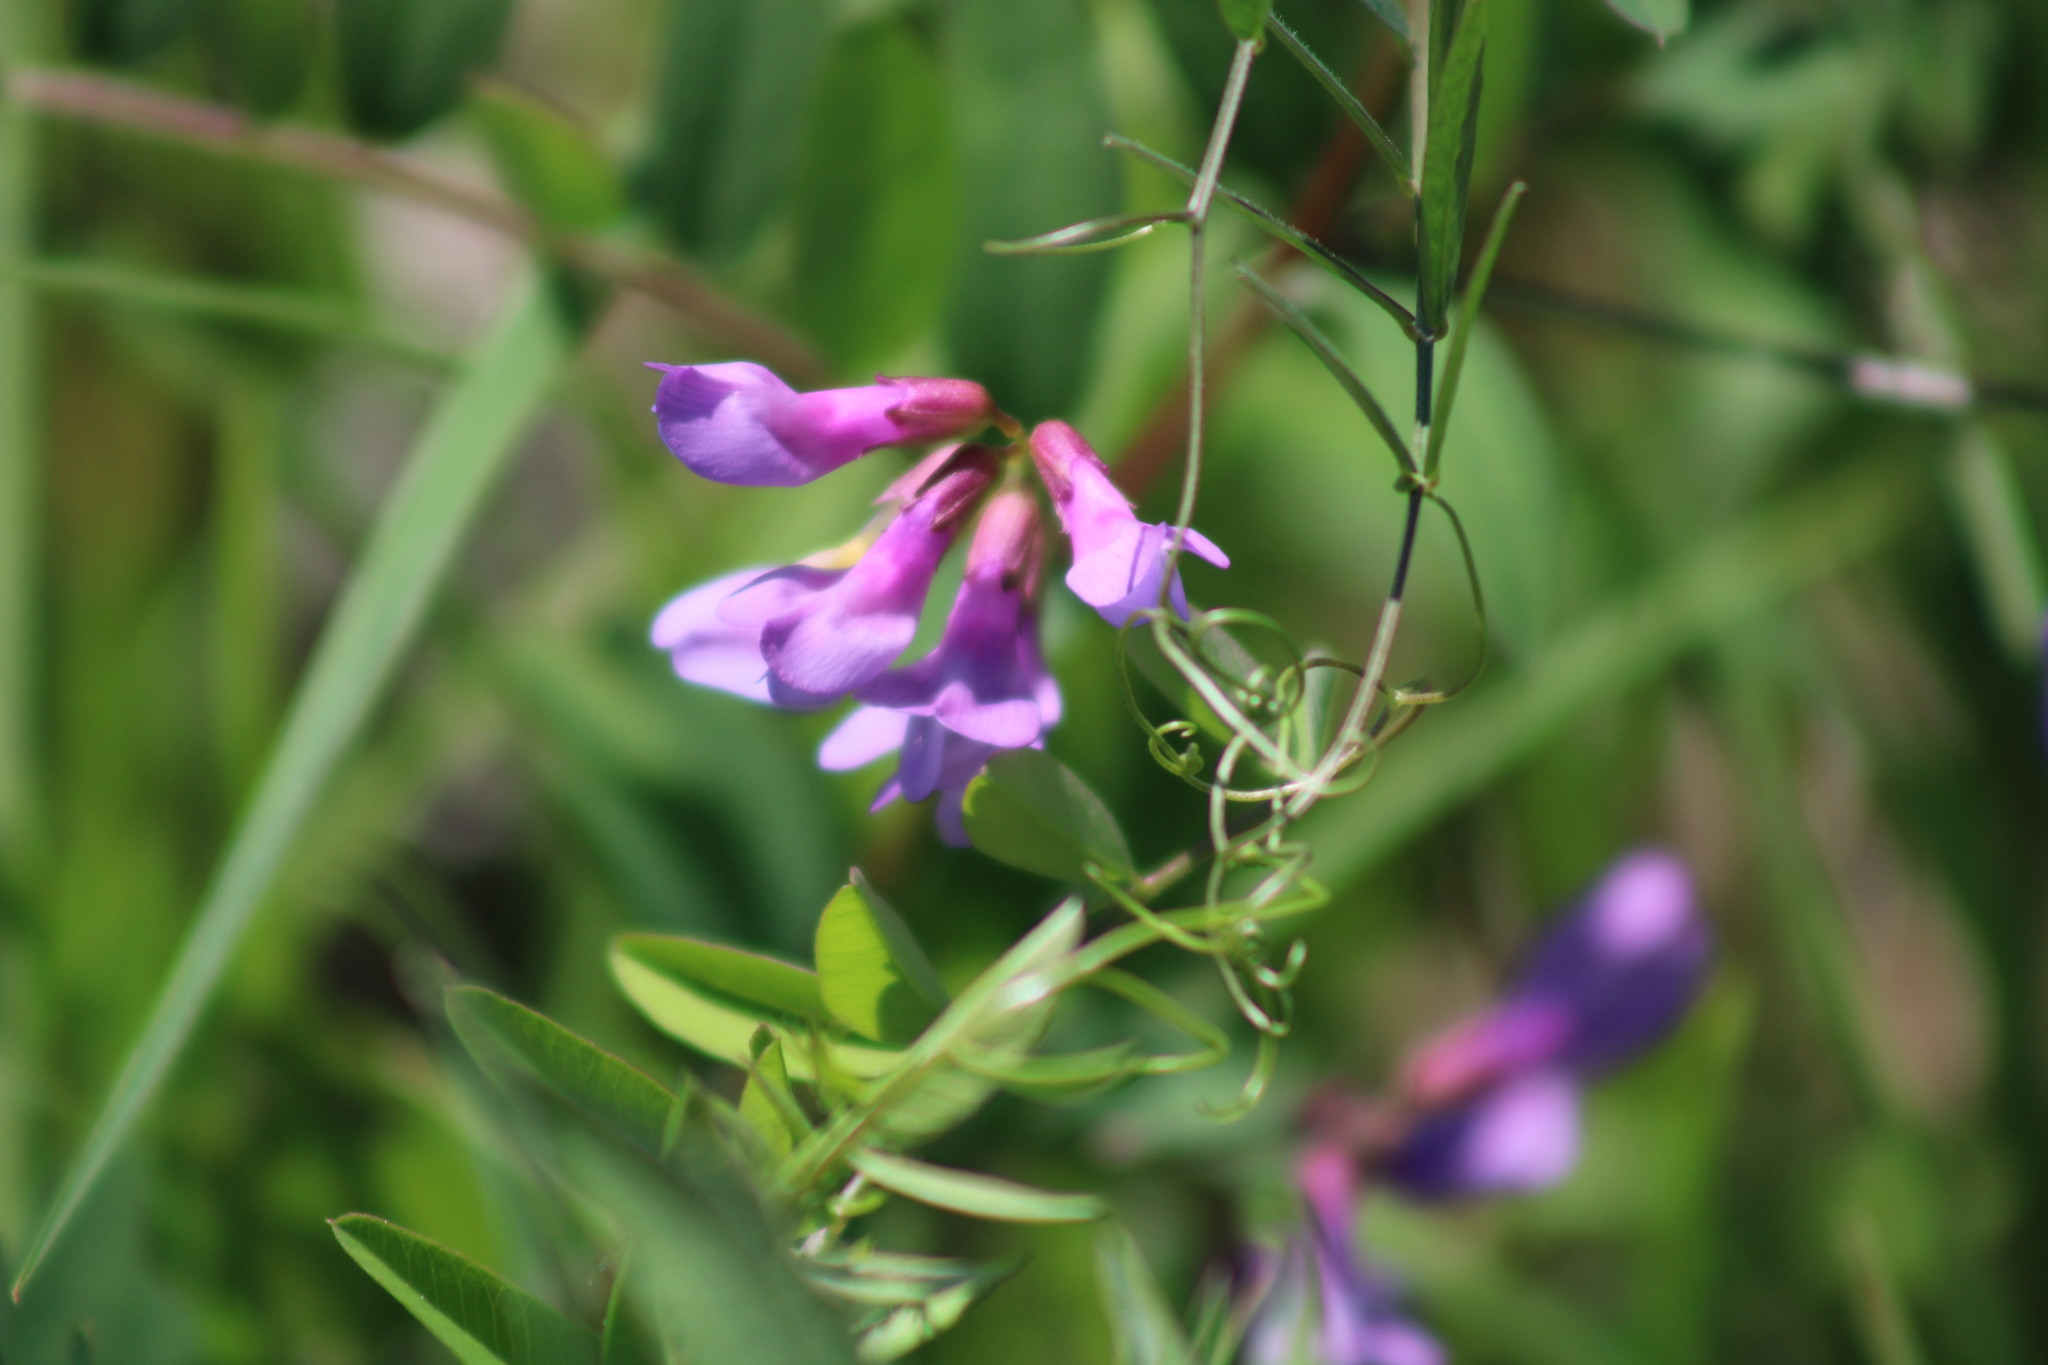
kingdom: Plantae
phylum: Tracheophyta
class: Magnoliopsida
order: Fabales
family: Fabaceae
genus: Vicia
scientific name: Vicia americana
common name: American vetch
